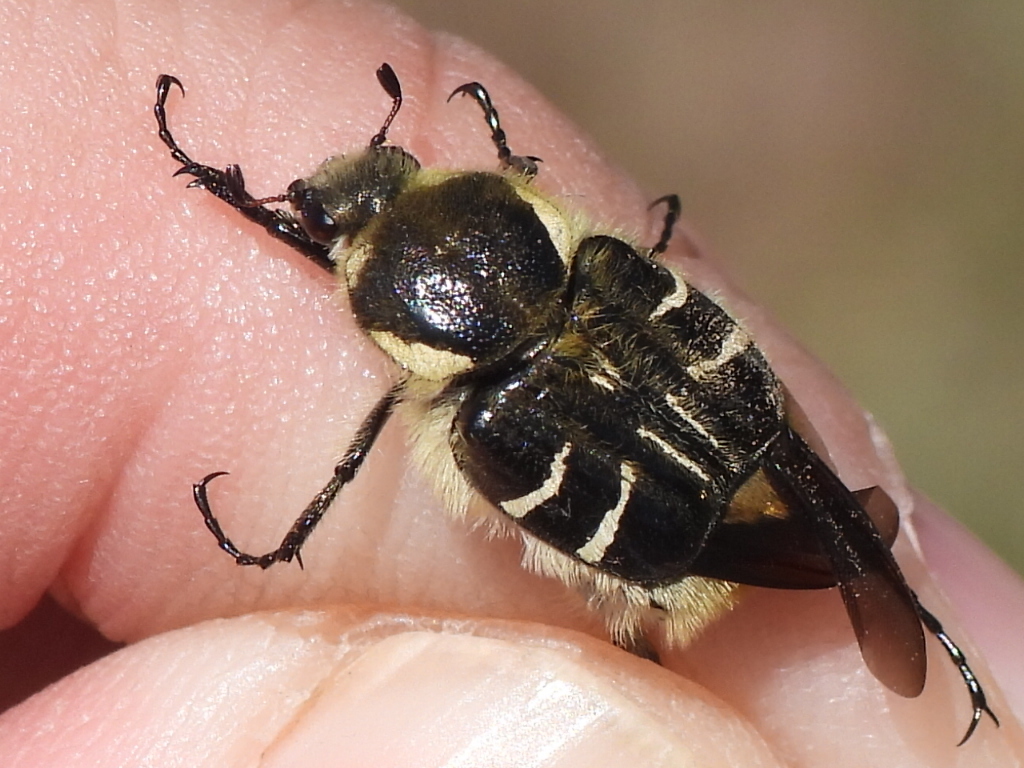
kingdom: Animalia
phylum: Arthropoda
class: Insecta
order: Coleoptera
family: Scarabaeidae
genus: Trichiotinus
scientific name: Trichiotinus texanus
